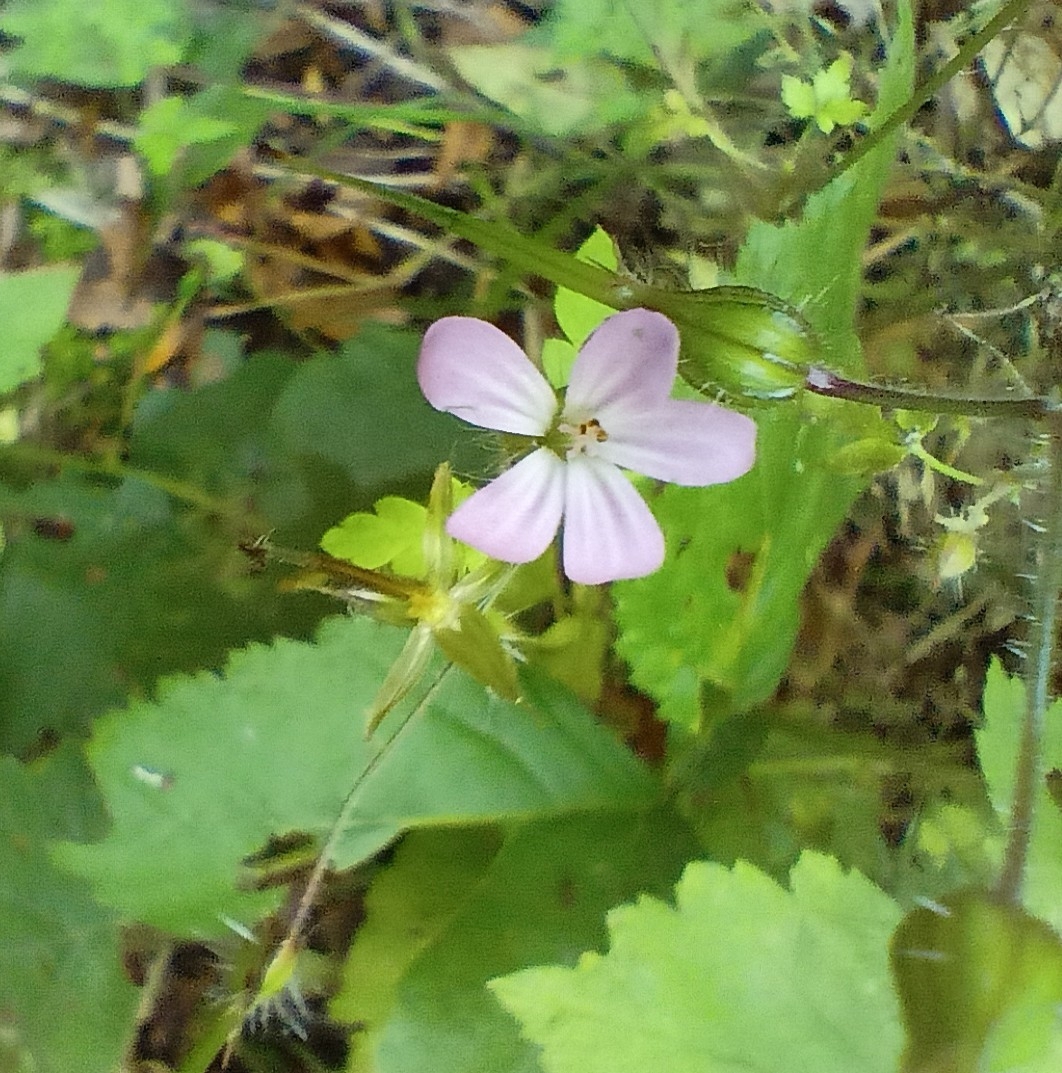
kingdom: Plantae
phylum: Tracheophyta
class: Magnoliopsida
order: Geraniales
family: Geraniaceae
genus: Geranium
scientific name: Geranium robertianum
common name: Herb-robert
